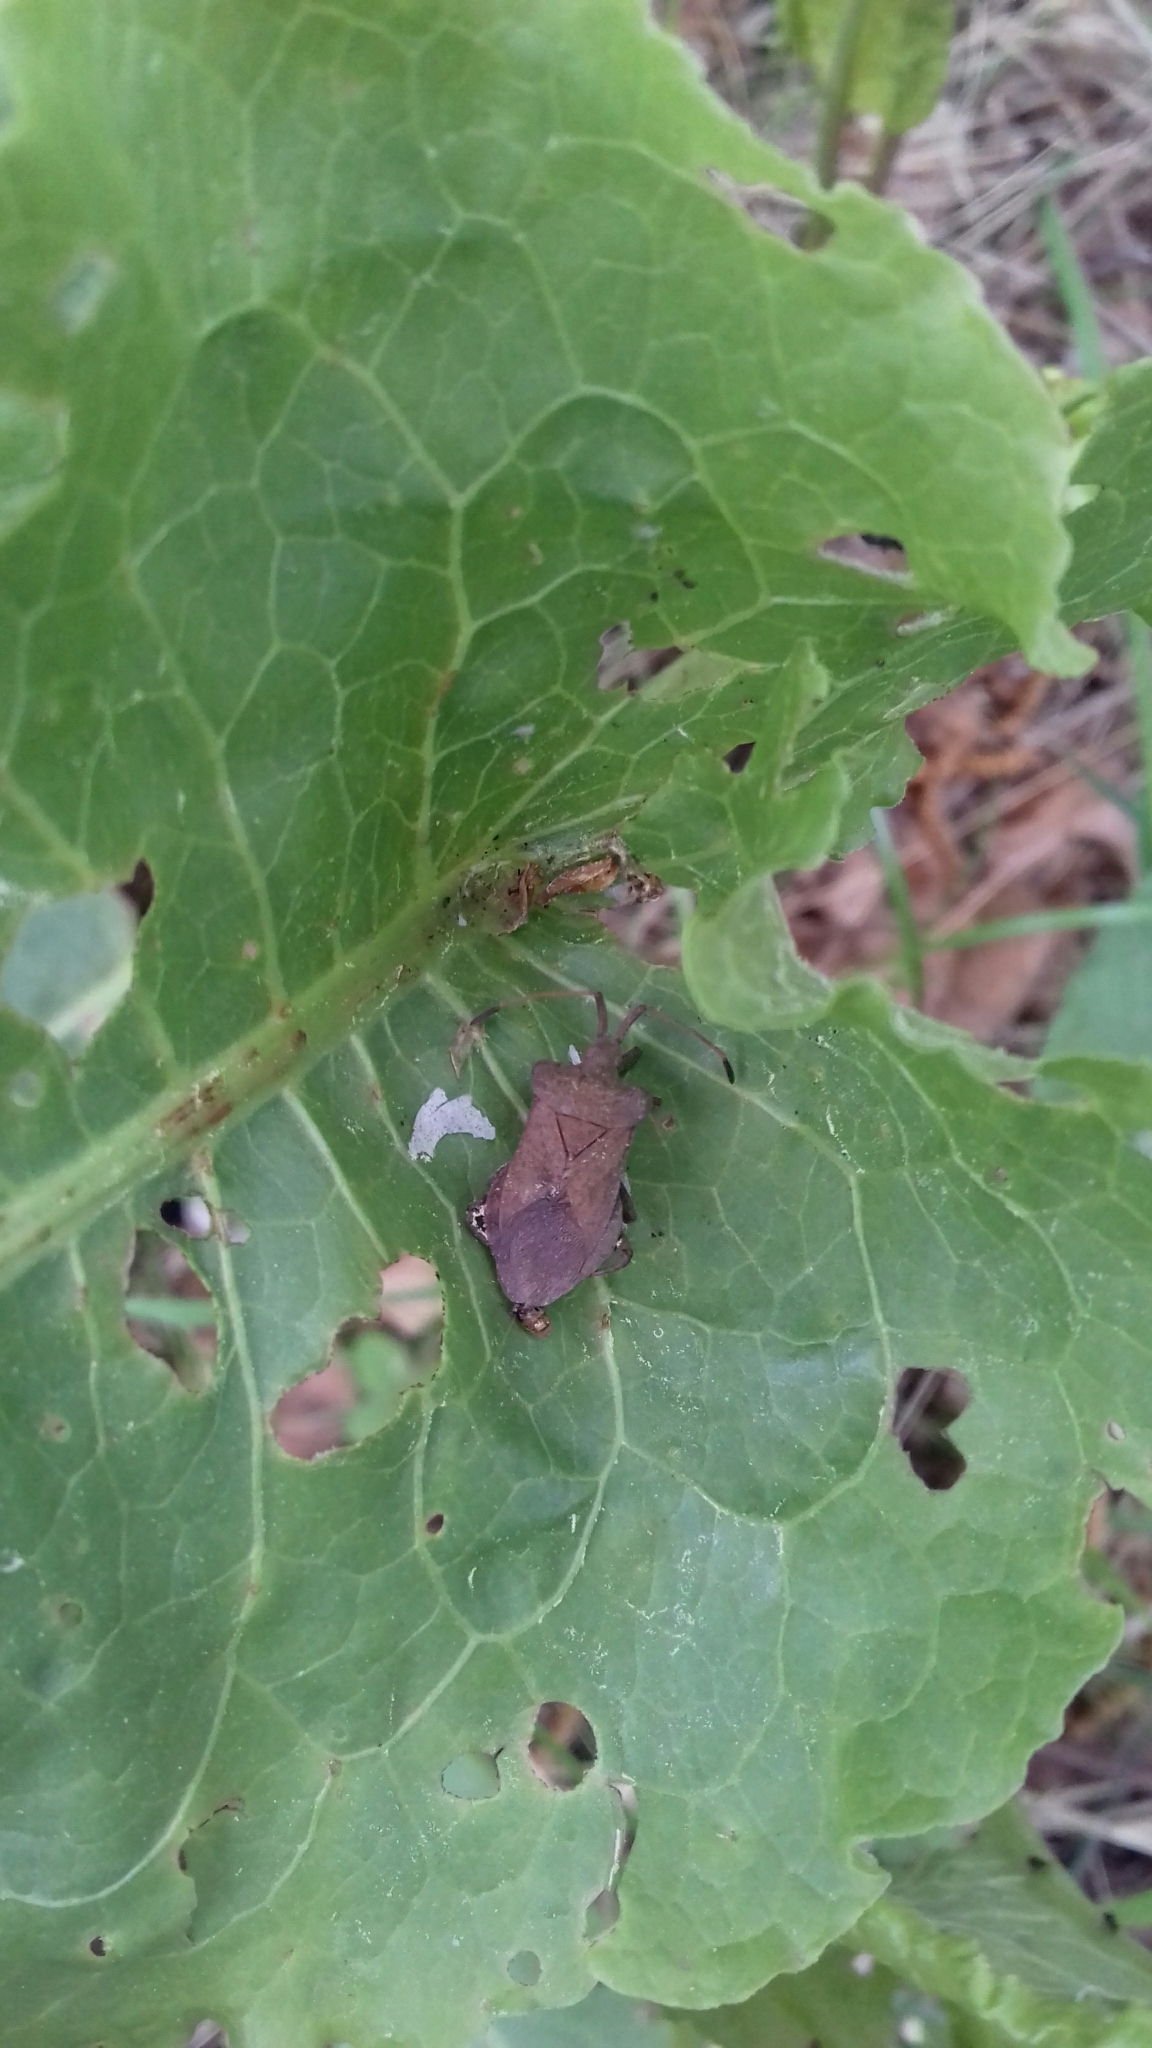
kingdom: Animalia
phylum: Arthropoda
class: Insecta
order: Hemiptera
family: Coreidae
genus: Coreus
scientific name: Coreus marginatus
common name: Dock bug
